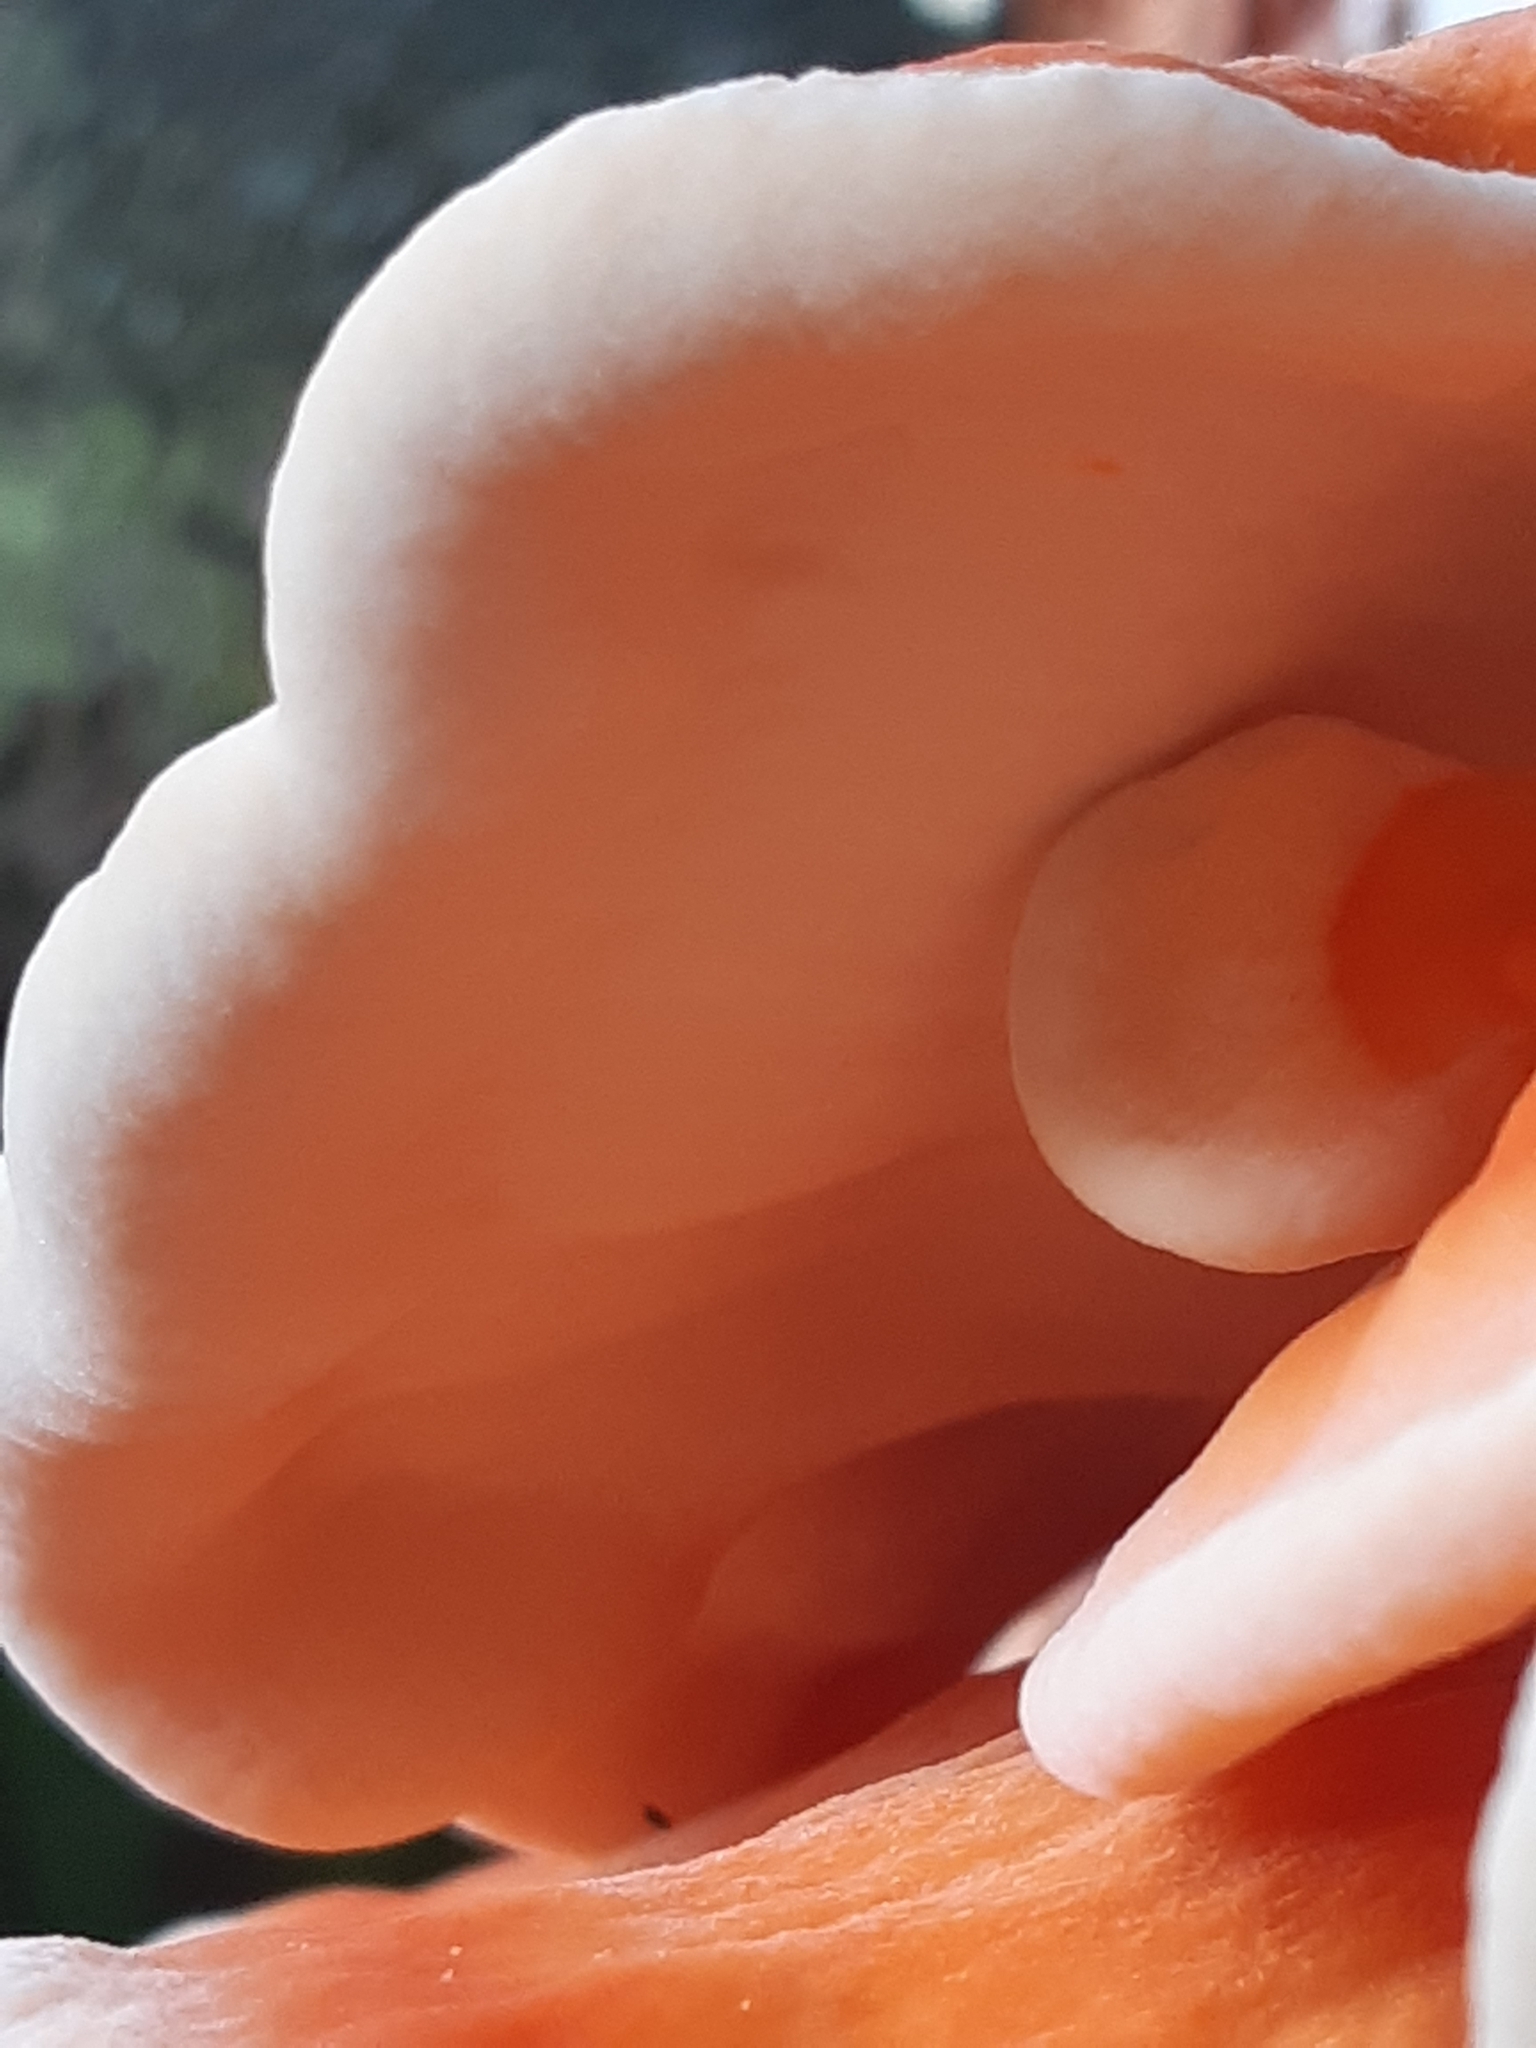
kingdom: Fungi
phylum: Basidiomycota
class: Agaricomycetes
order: Polyporales
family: Laetiporaceae
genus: Laetiporus
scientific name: Laetiporus sulphureus
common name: Chicken of the woods
